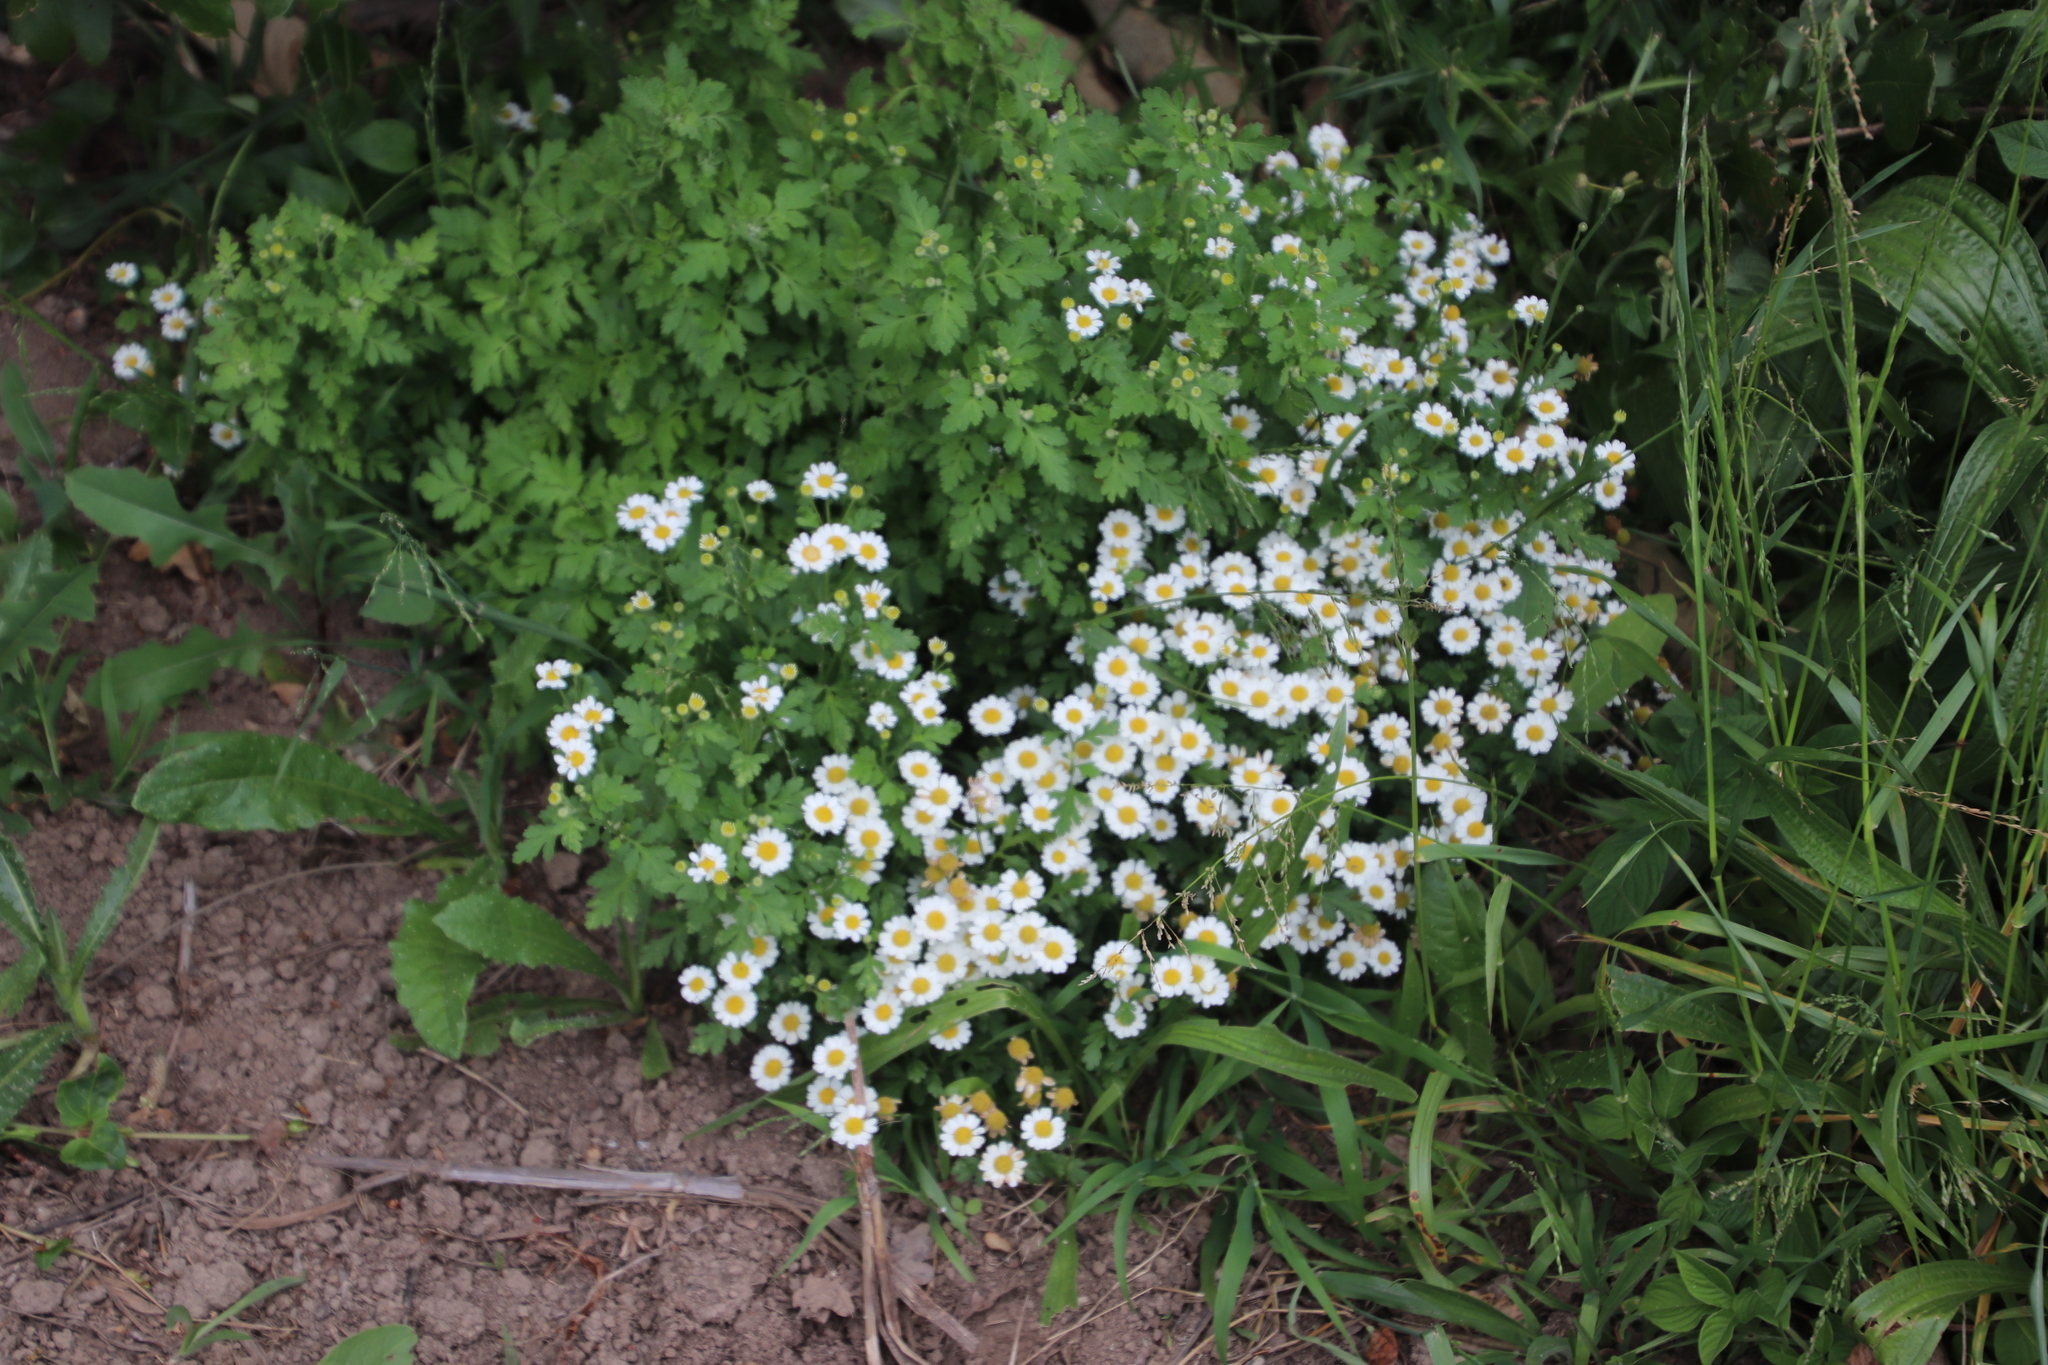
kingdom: Plantae
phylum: Tracheophyta
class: Magnoliopsida
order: Asterales
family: Asteraceae
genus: Tanacetum
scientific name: Tanacetum parthenium
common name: Feverfew
